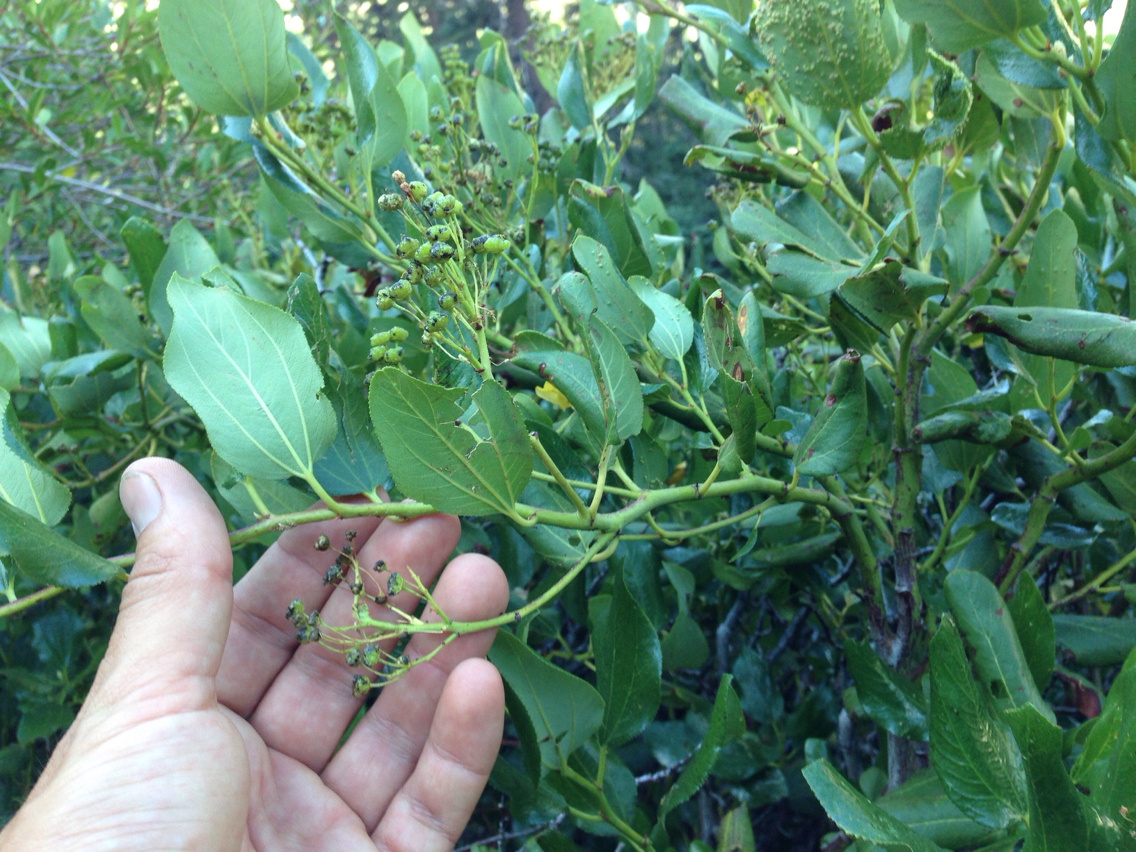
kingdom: Plantae
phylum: Tracheophyta
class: Magnoliopsida
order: Rosales
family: Rhamnaceae
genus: Ceanothus
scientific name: Ceanothus velutinus
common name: Snowbrush
